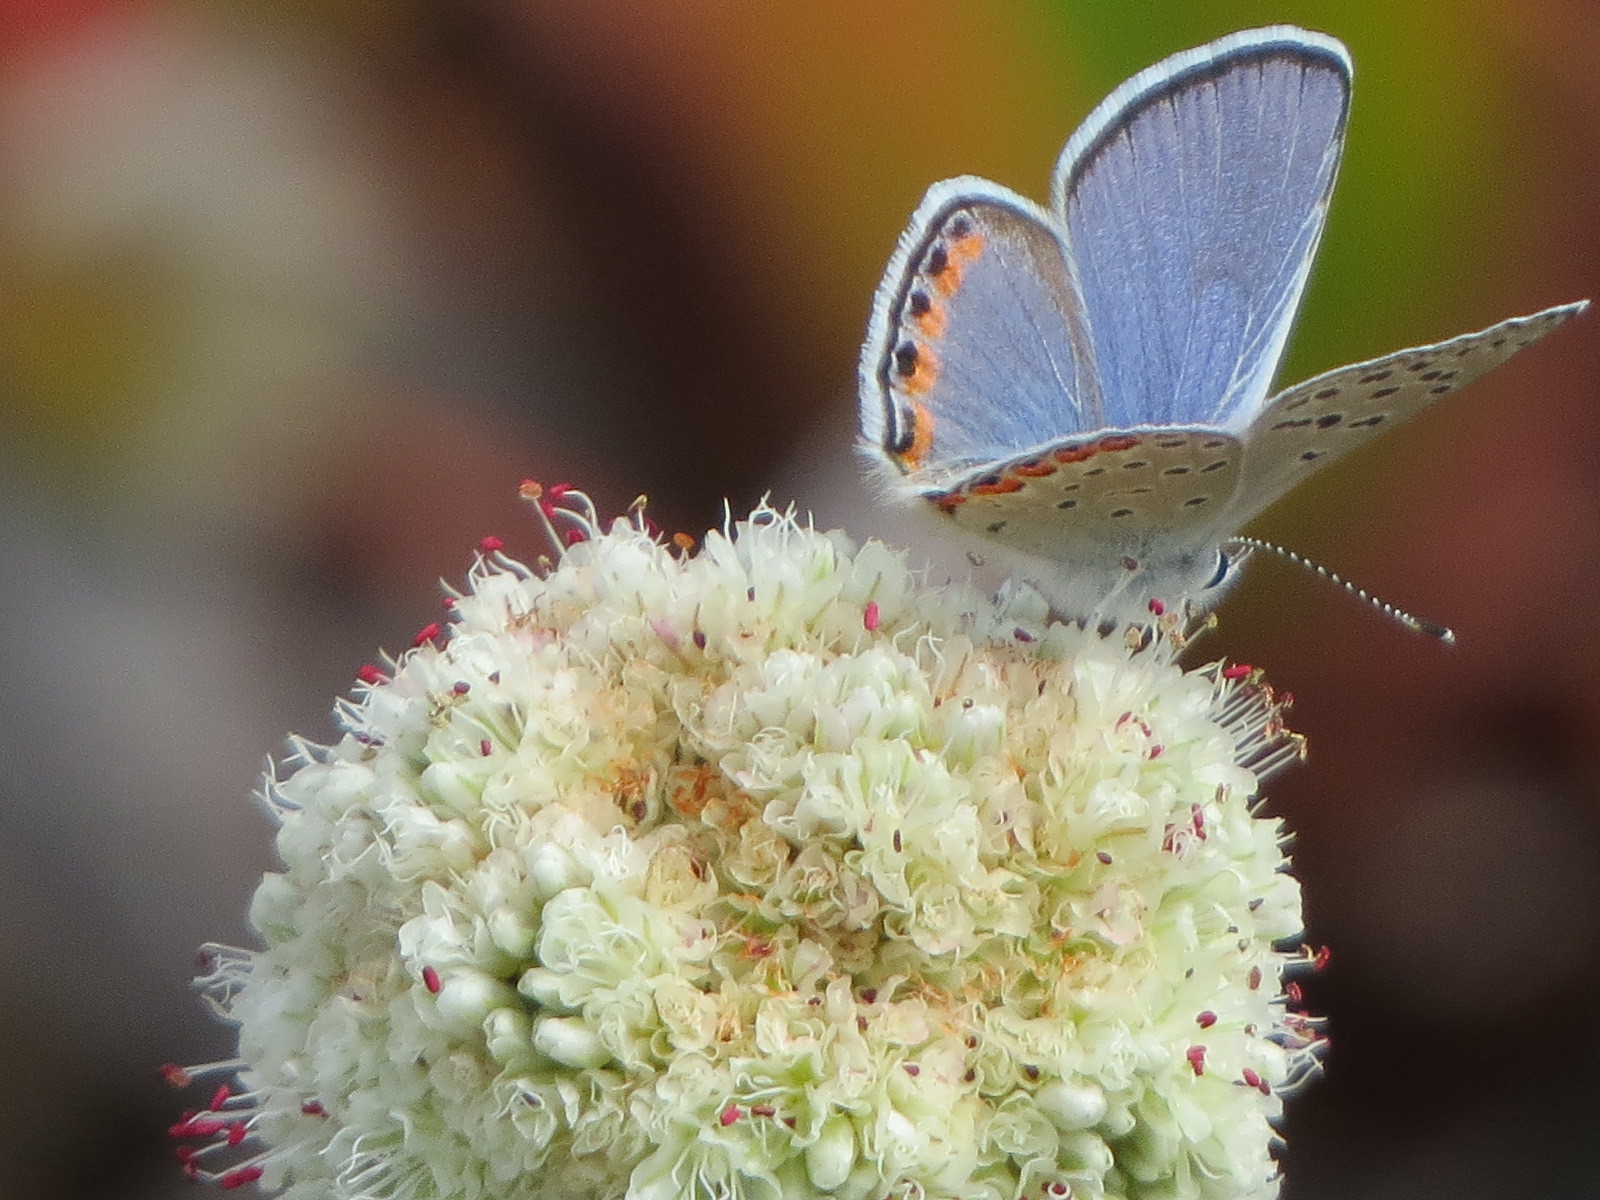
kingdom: Animalia
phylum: Arthropoda
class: Insecta
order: Lepidoptera
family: Lycaenidae
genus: Icaricia
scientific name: Icaricia acmon
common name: Acmon blue
